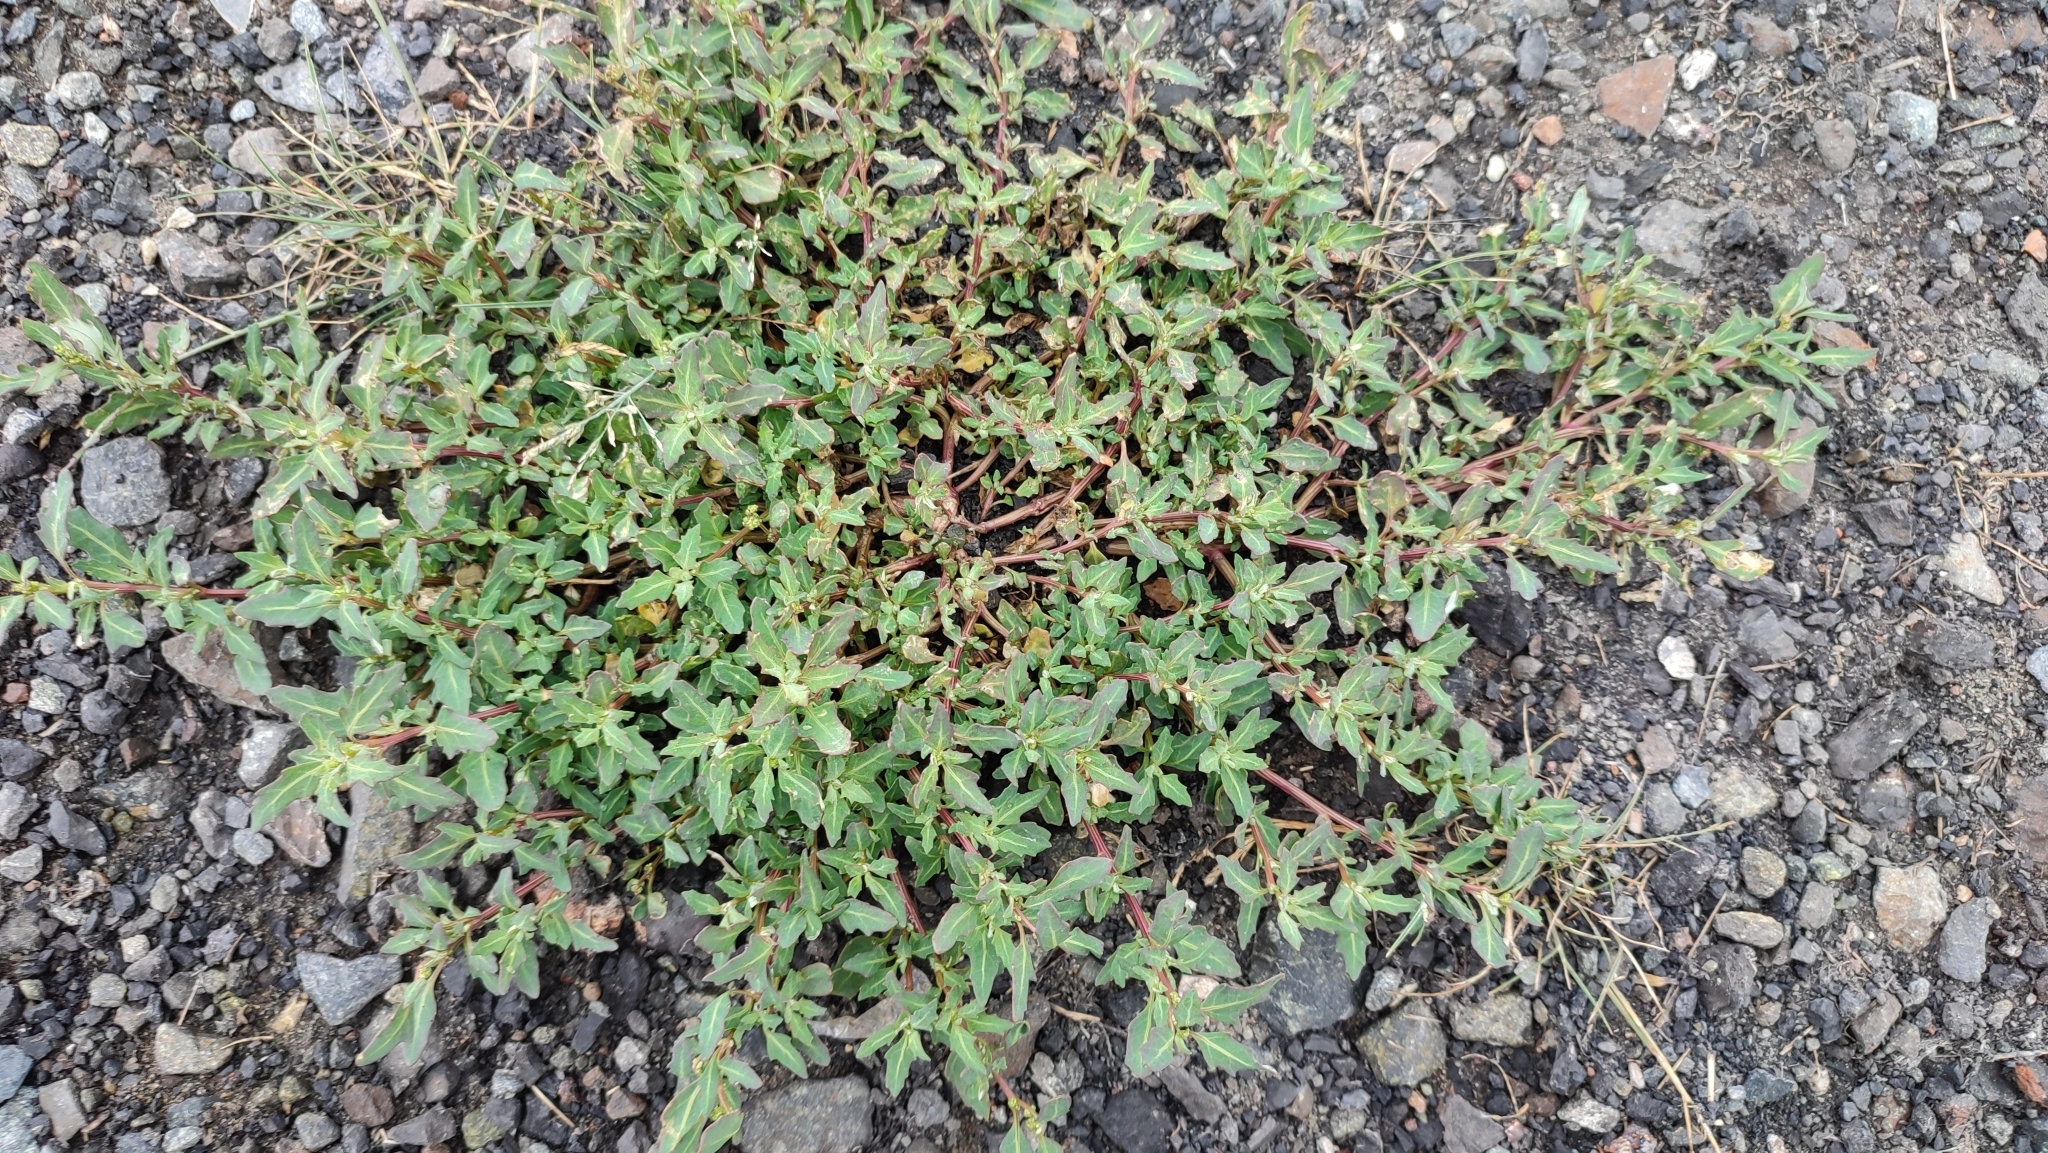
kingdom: Plantae
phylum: Tracheophyta
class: Magnoliopsida
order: Caryophyllales
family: Amaranthaceae
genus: Oxybasis
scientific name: Oxybasis glauca
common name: Glaucous goosefoot
